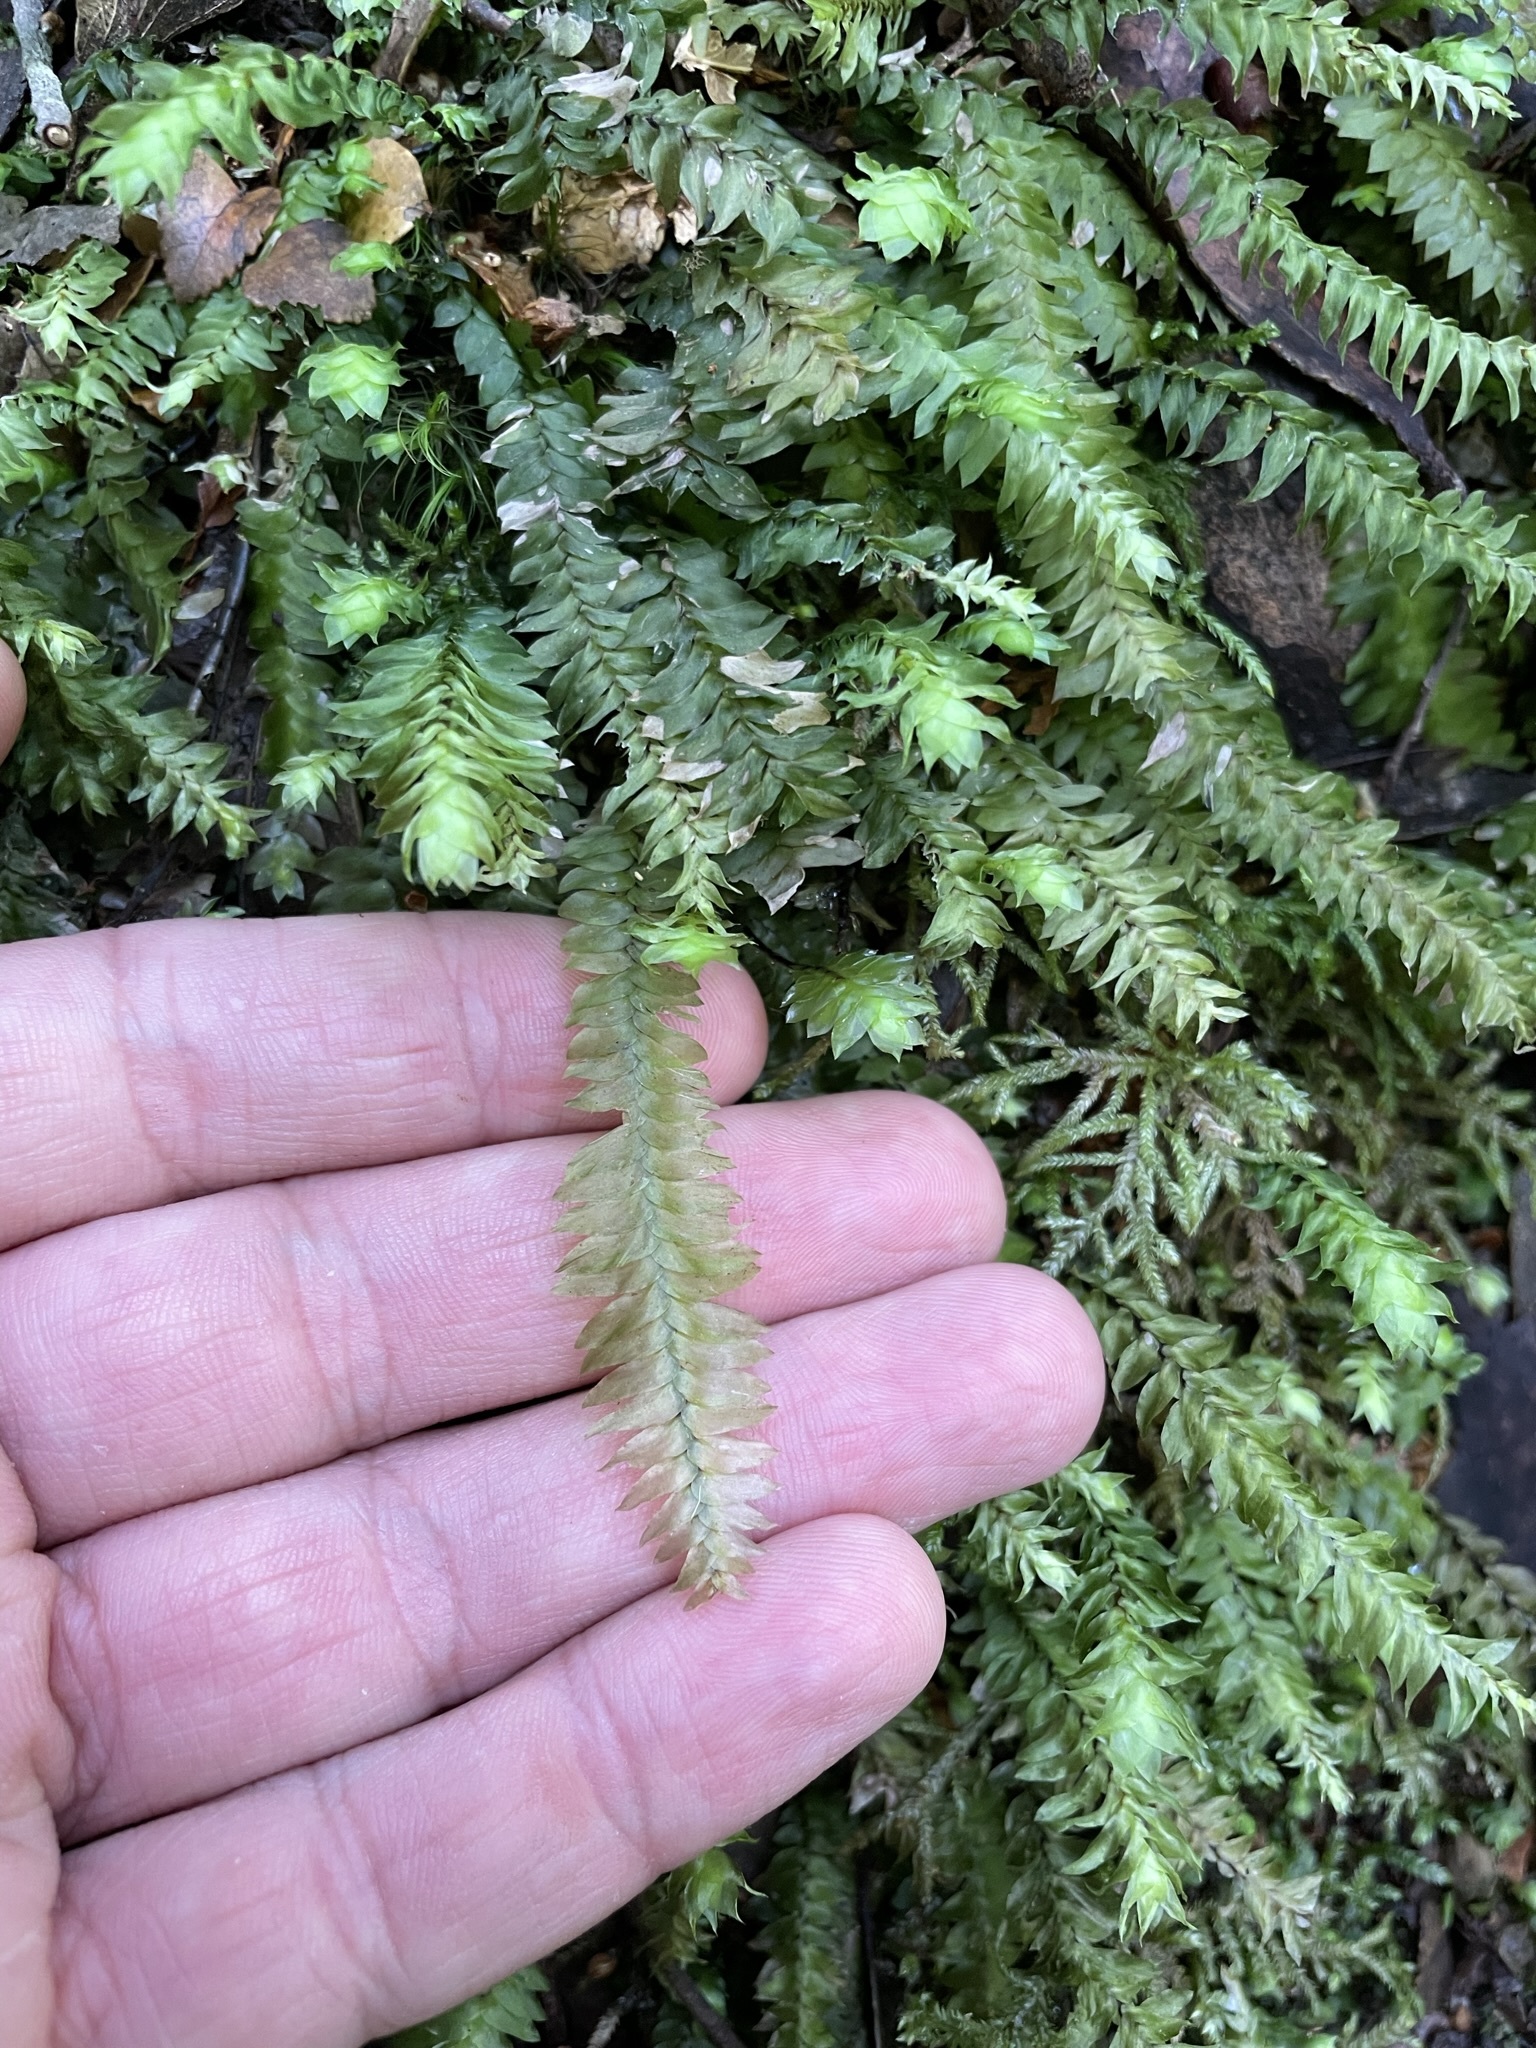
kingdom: Plantae
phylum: Bryophyta
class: Bryopsida
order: Hypopterygiales
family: Hypopterygiaceae
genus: Cyathophorum
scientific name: Cyathophorum bulbosum
